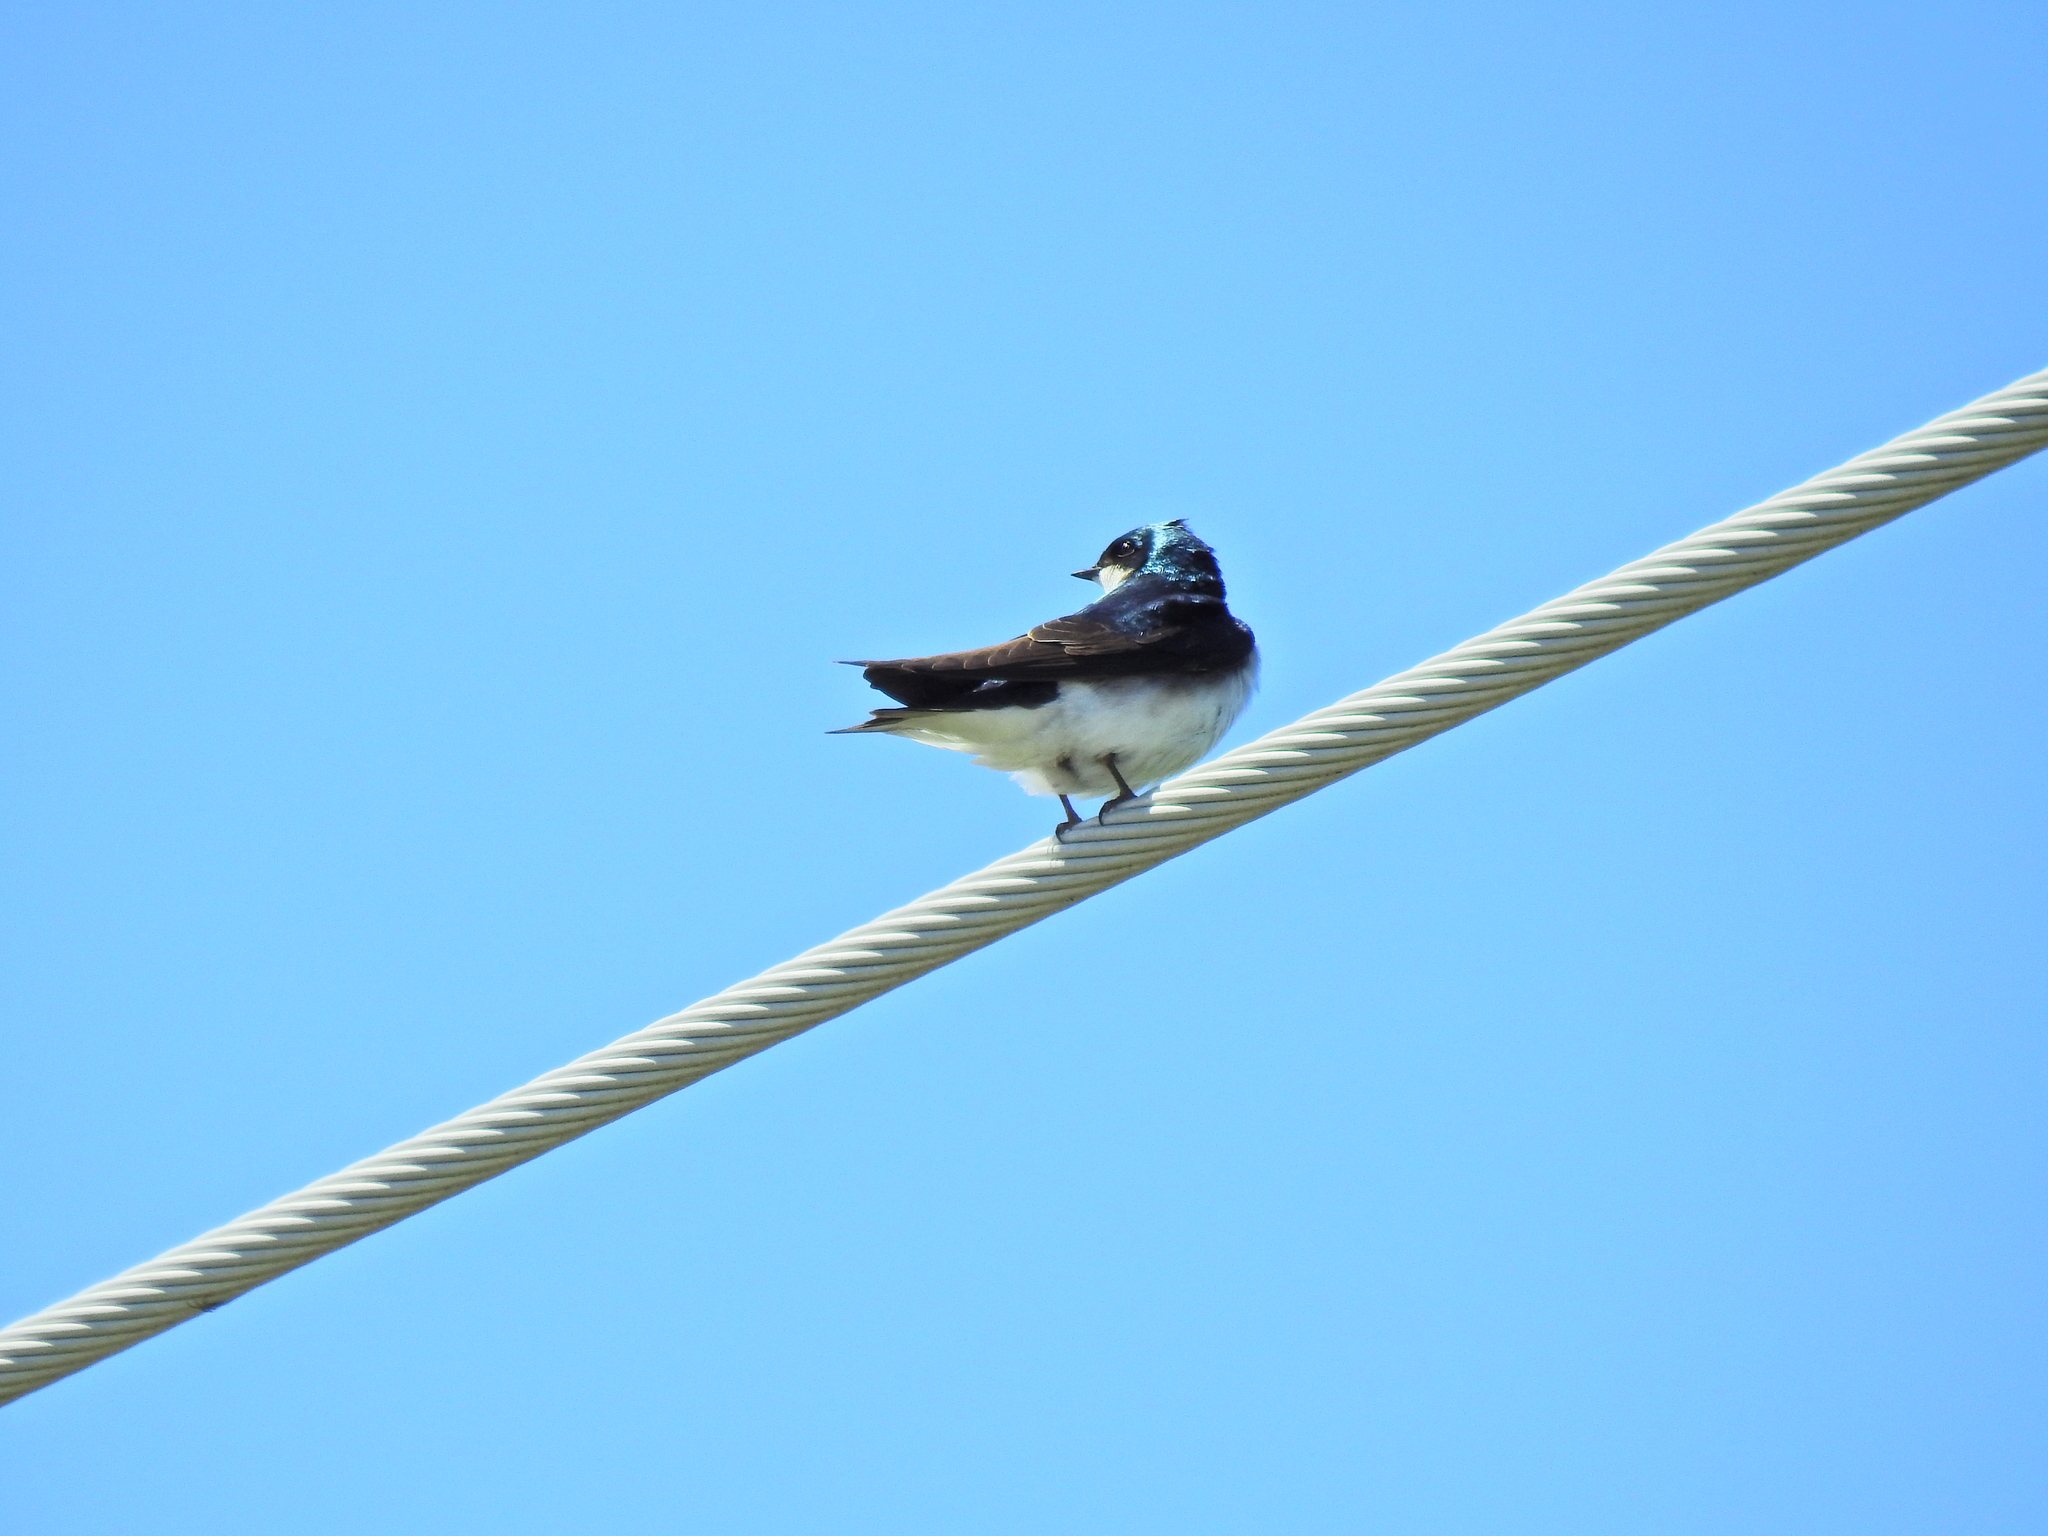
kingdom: Animalia
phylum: Chordata
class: Aves
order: Passeriformes
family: Hirundinidae
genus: Tachycineta
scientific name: Tachycineta bicolor
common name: Tree swallow
